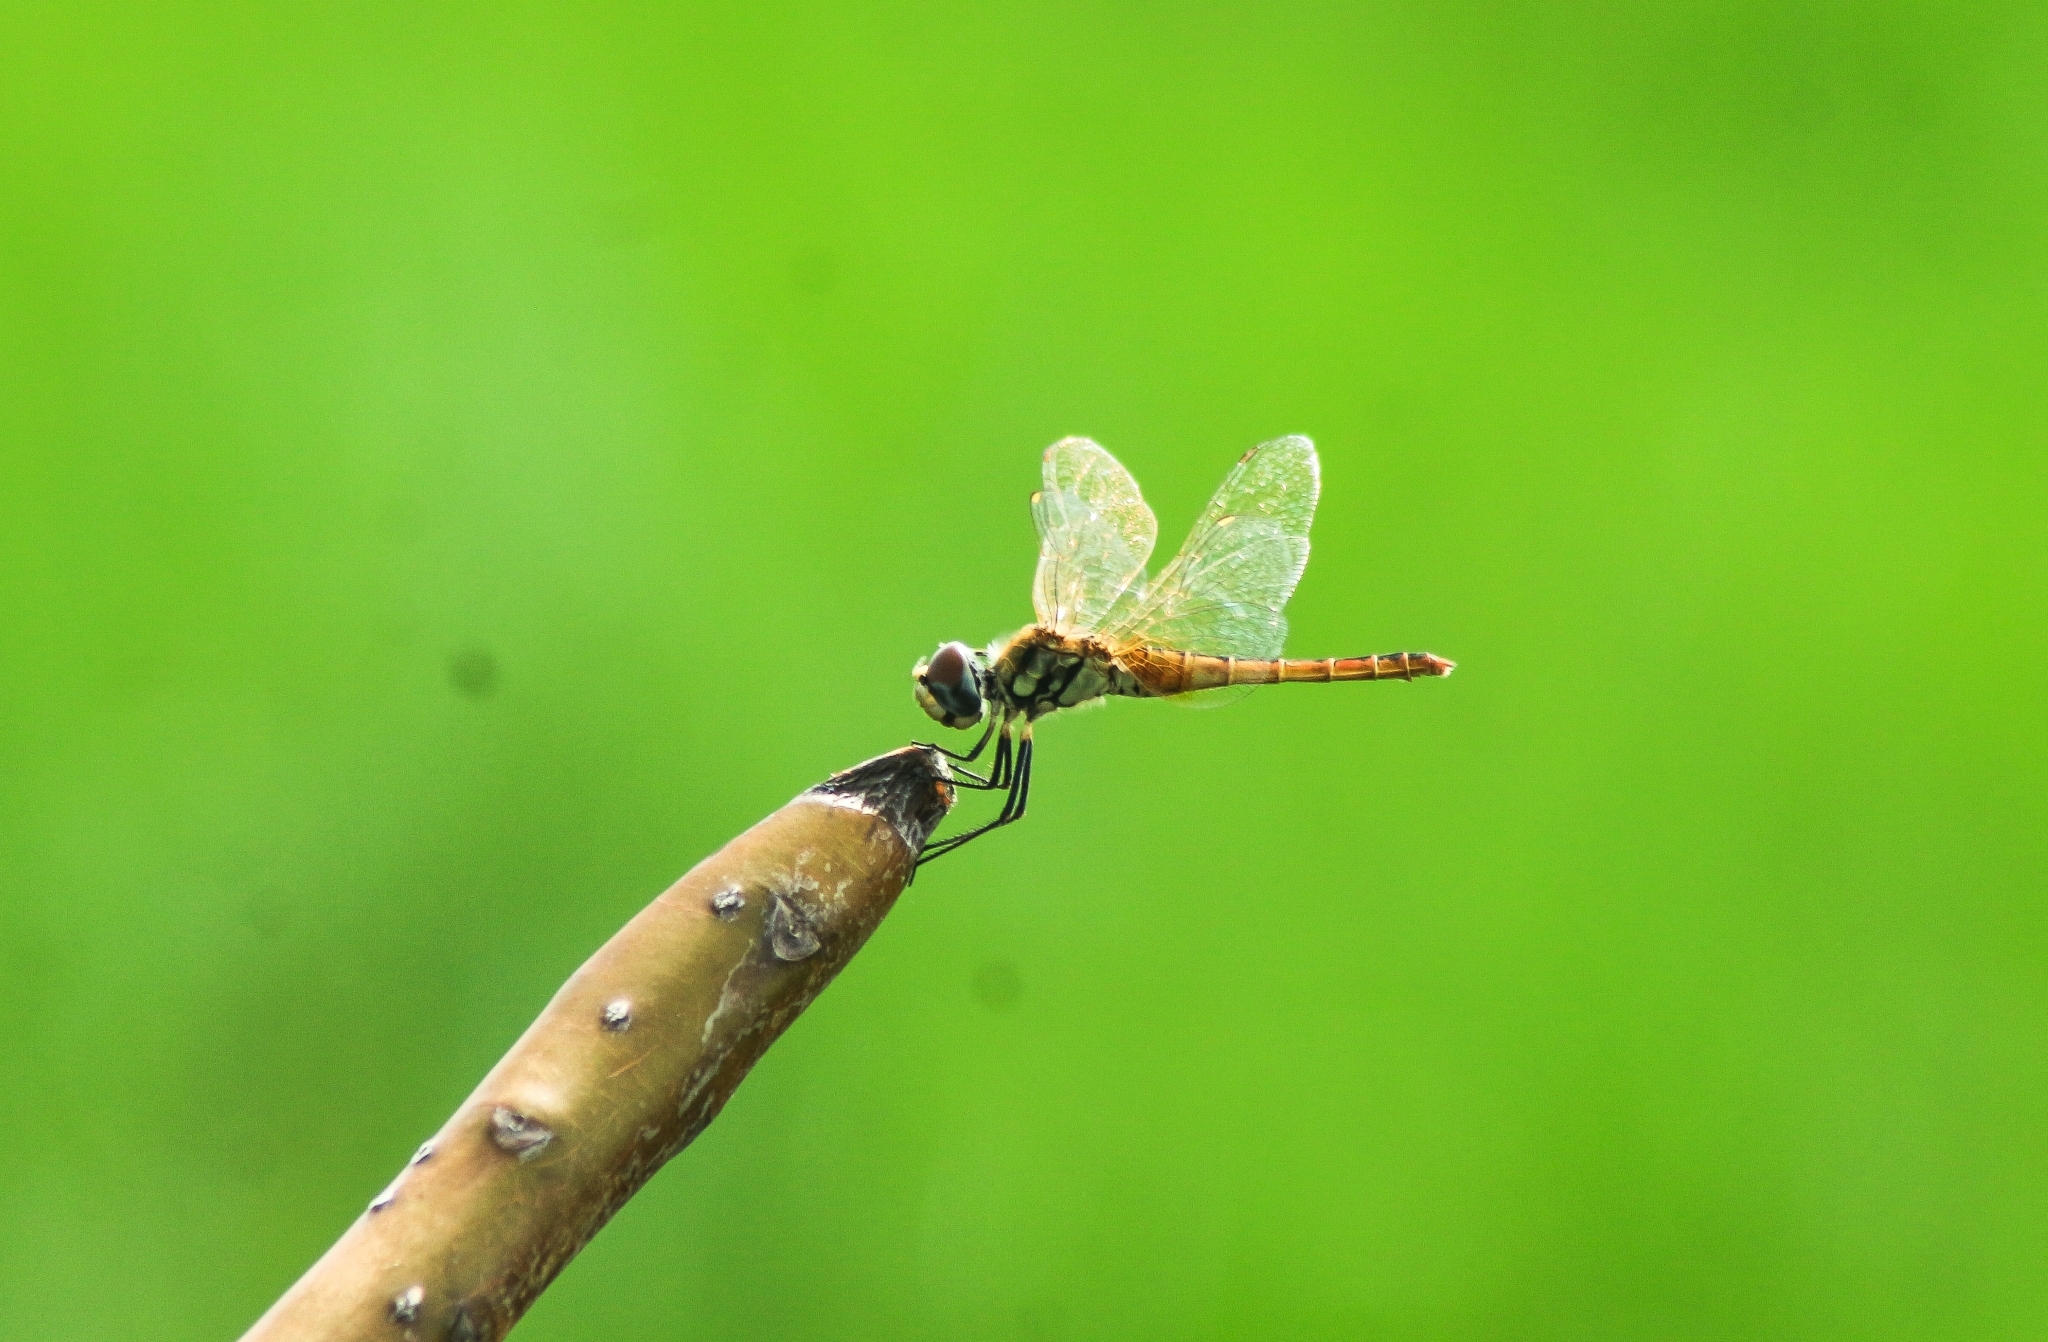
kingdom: Animalia
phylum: Arthropoda
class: Insecta
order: Odonata
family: Libellulidae
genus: Macrodiplax
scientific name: Macrodiplax cora
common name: Coastal glider
